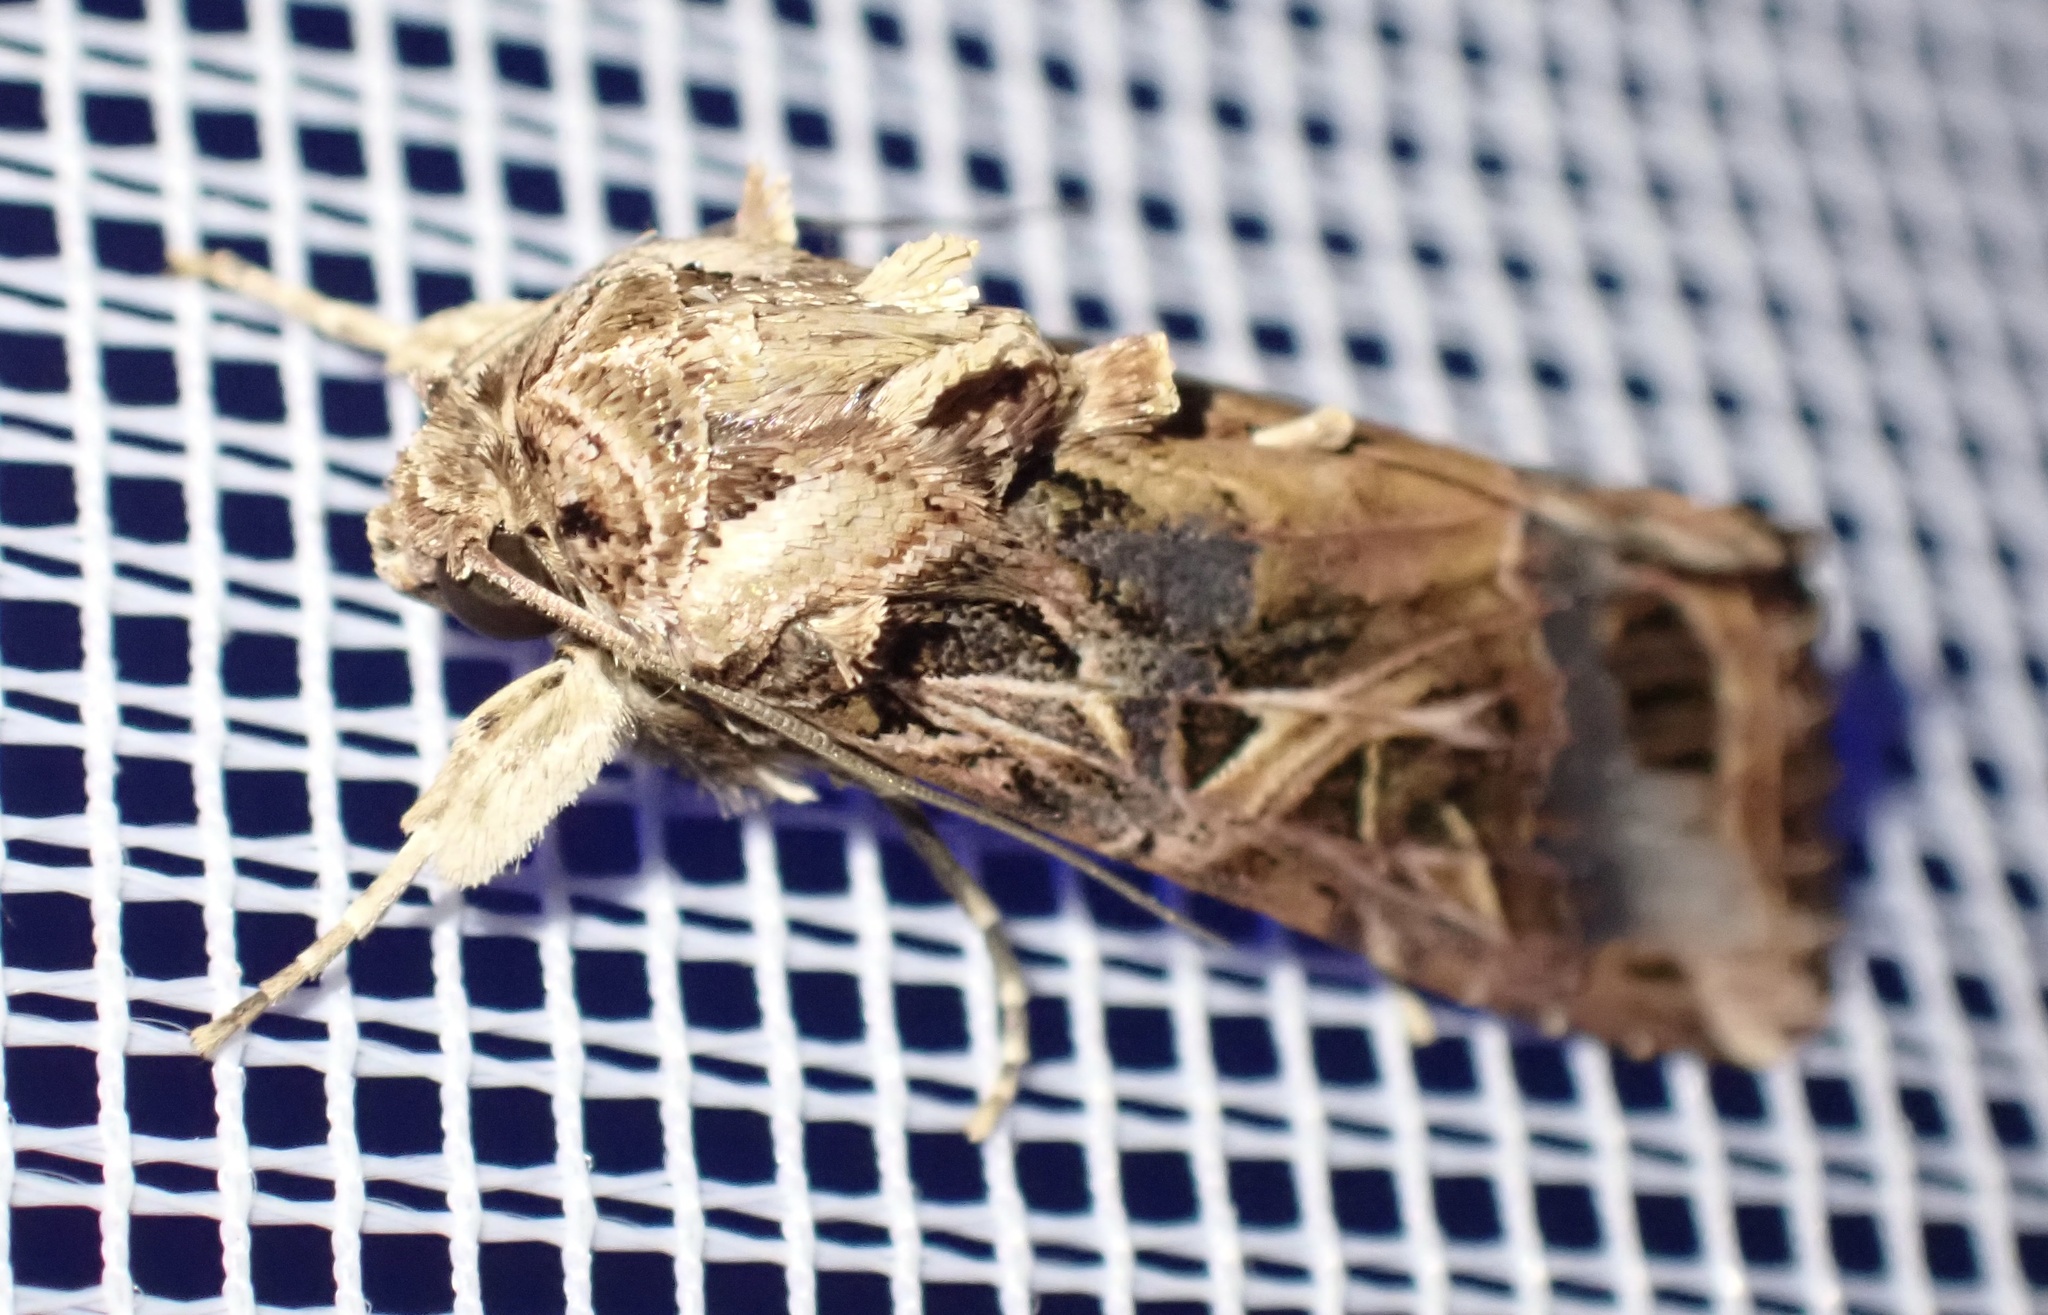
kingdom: Animalia
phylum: Arthropoda
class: Insecta
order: Lepidoptera
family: Noctuidae
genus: Spodoptera
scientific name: Spodoptera littoralis
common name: Egyptian cotton leafworm
